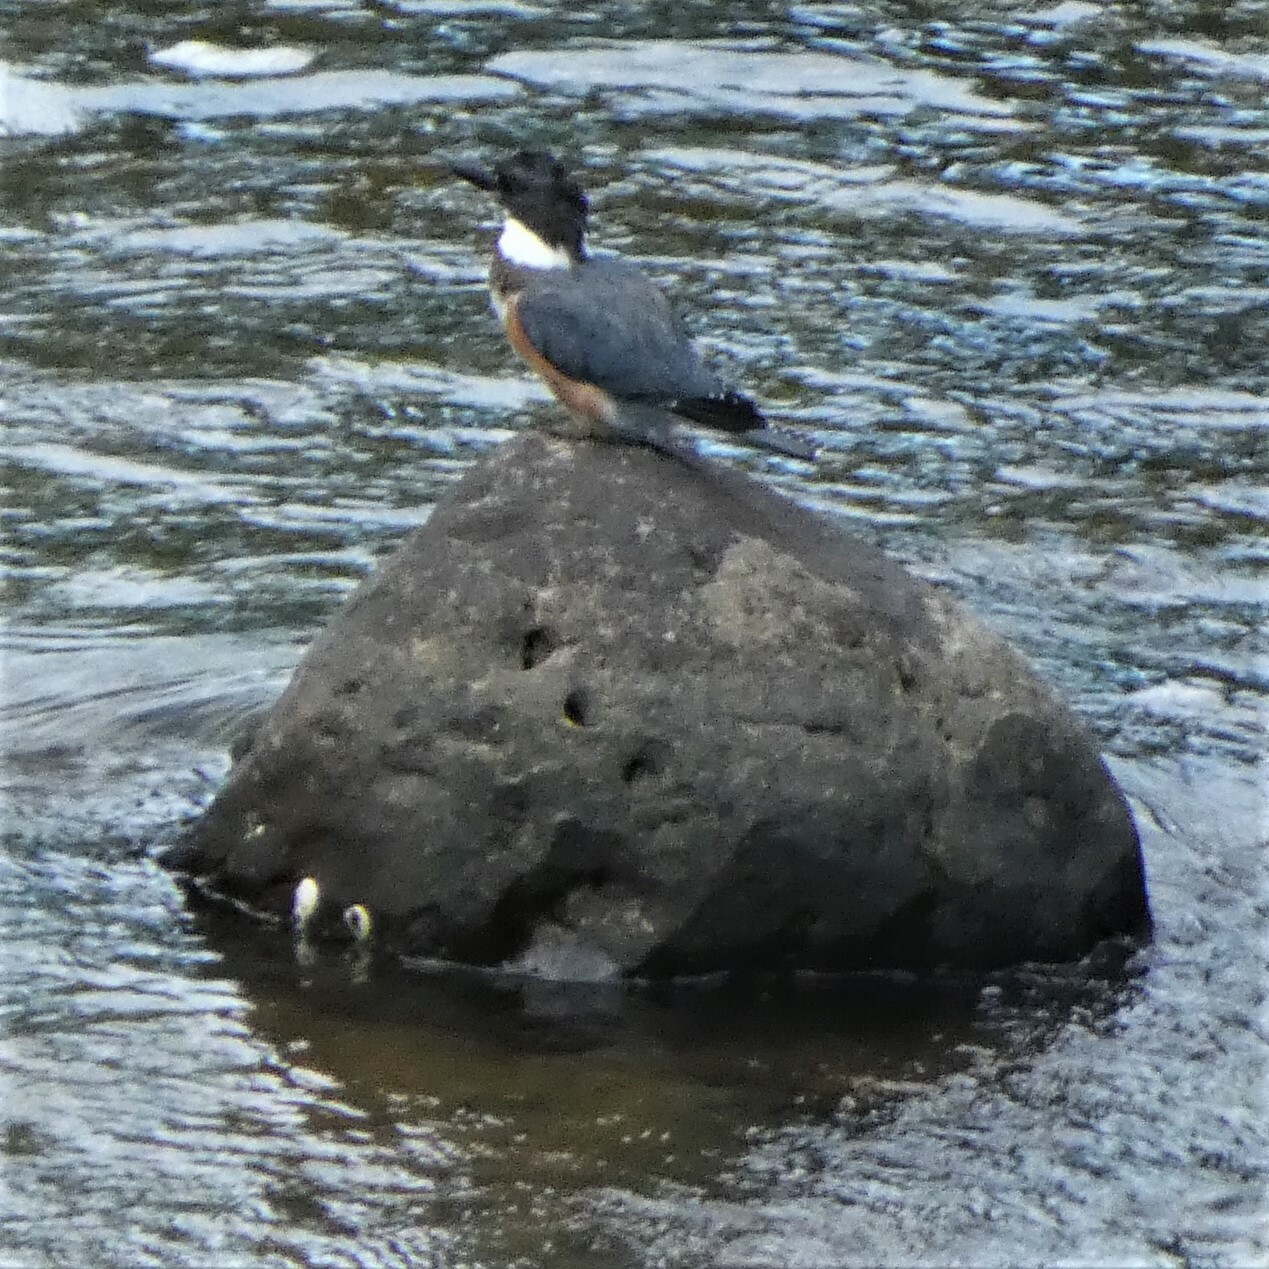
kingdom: Animalia
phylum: Chordata
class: Aves
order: Coraciiformes
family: Alcedinidae
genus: Megaceryle
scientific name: Megaceryle alcyon
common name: Belted kingfisher
